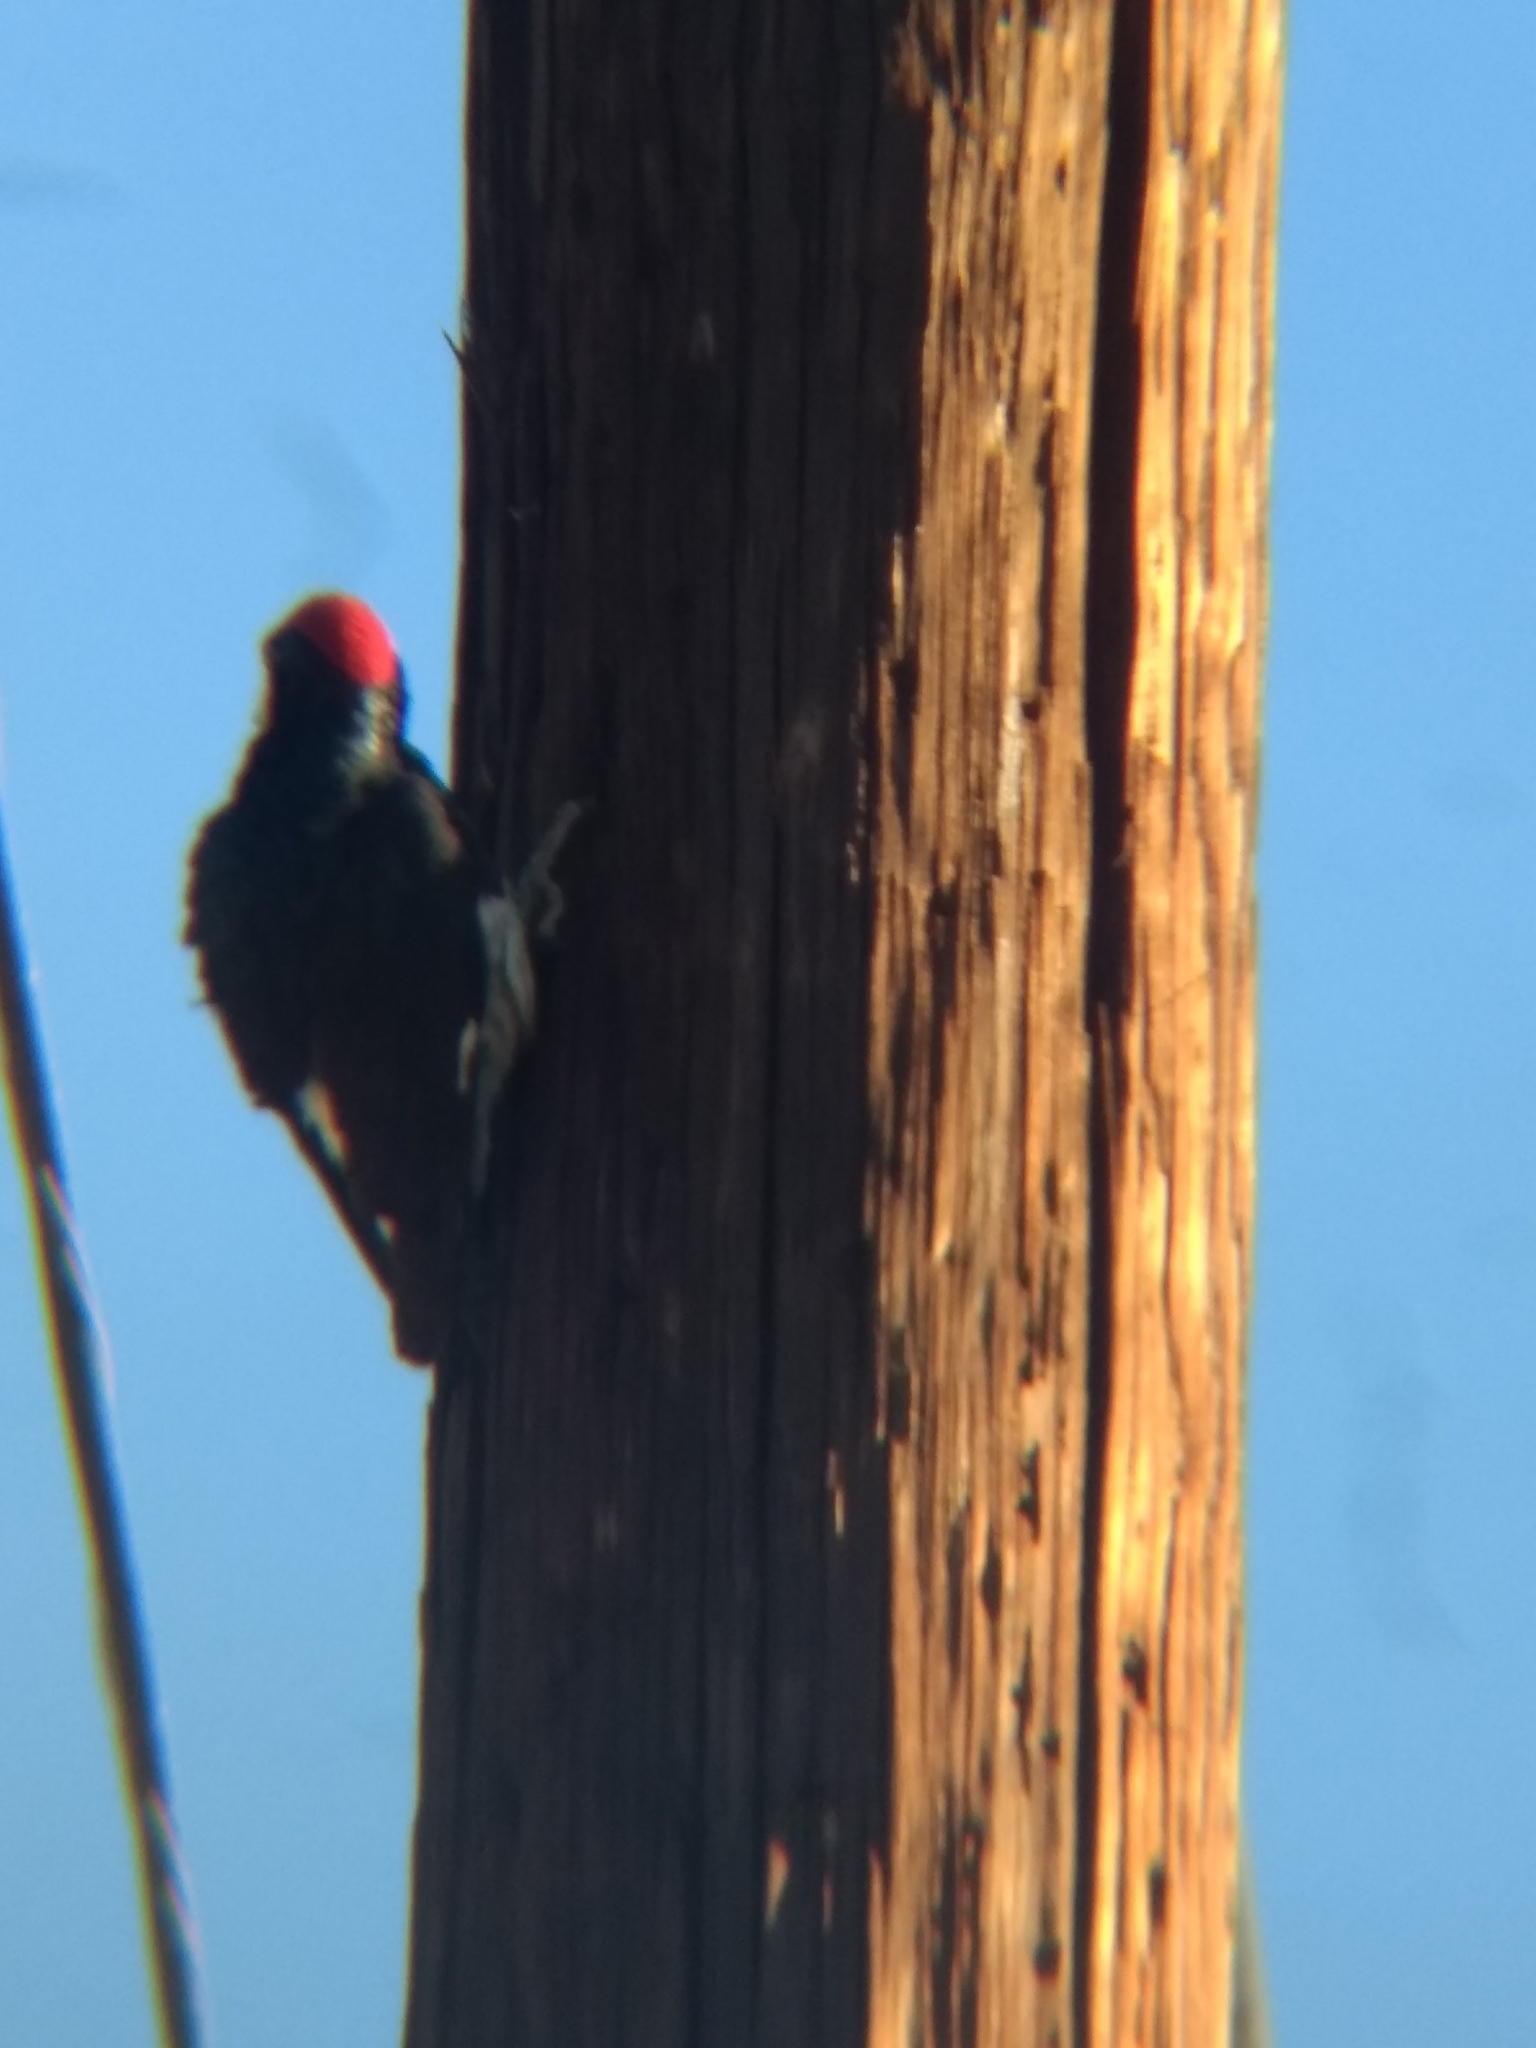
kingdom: Animalia
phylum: Chordata
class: Aves
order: Piciformes
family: Picidae
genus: Melanerpes
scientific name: Melanerpes formicivorus
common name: Acorn woodpecker
